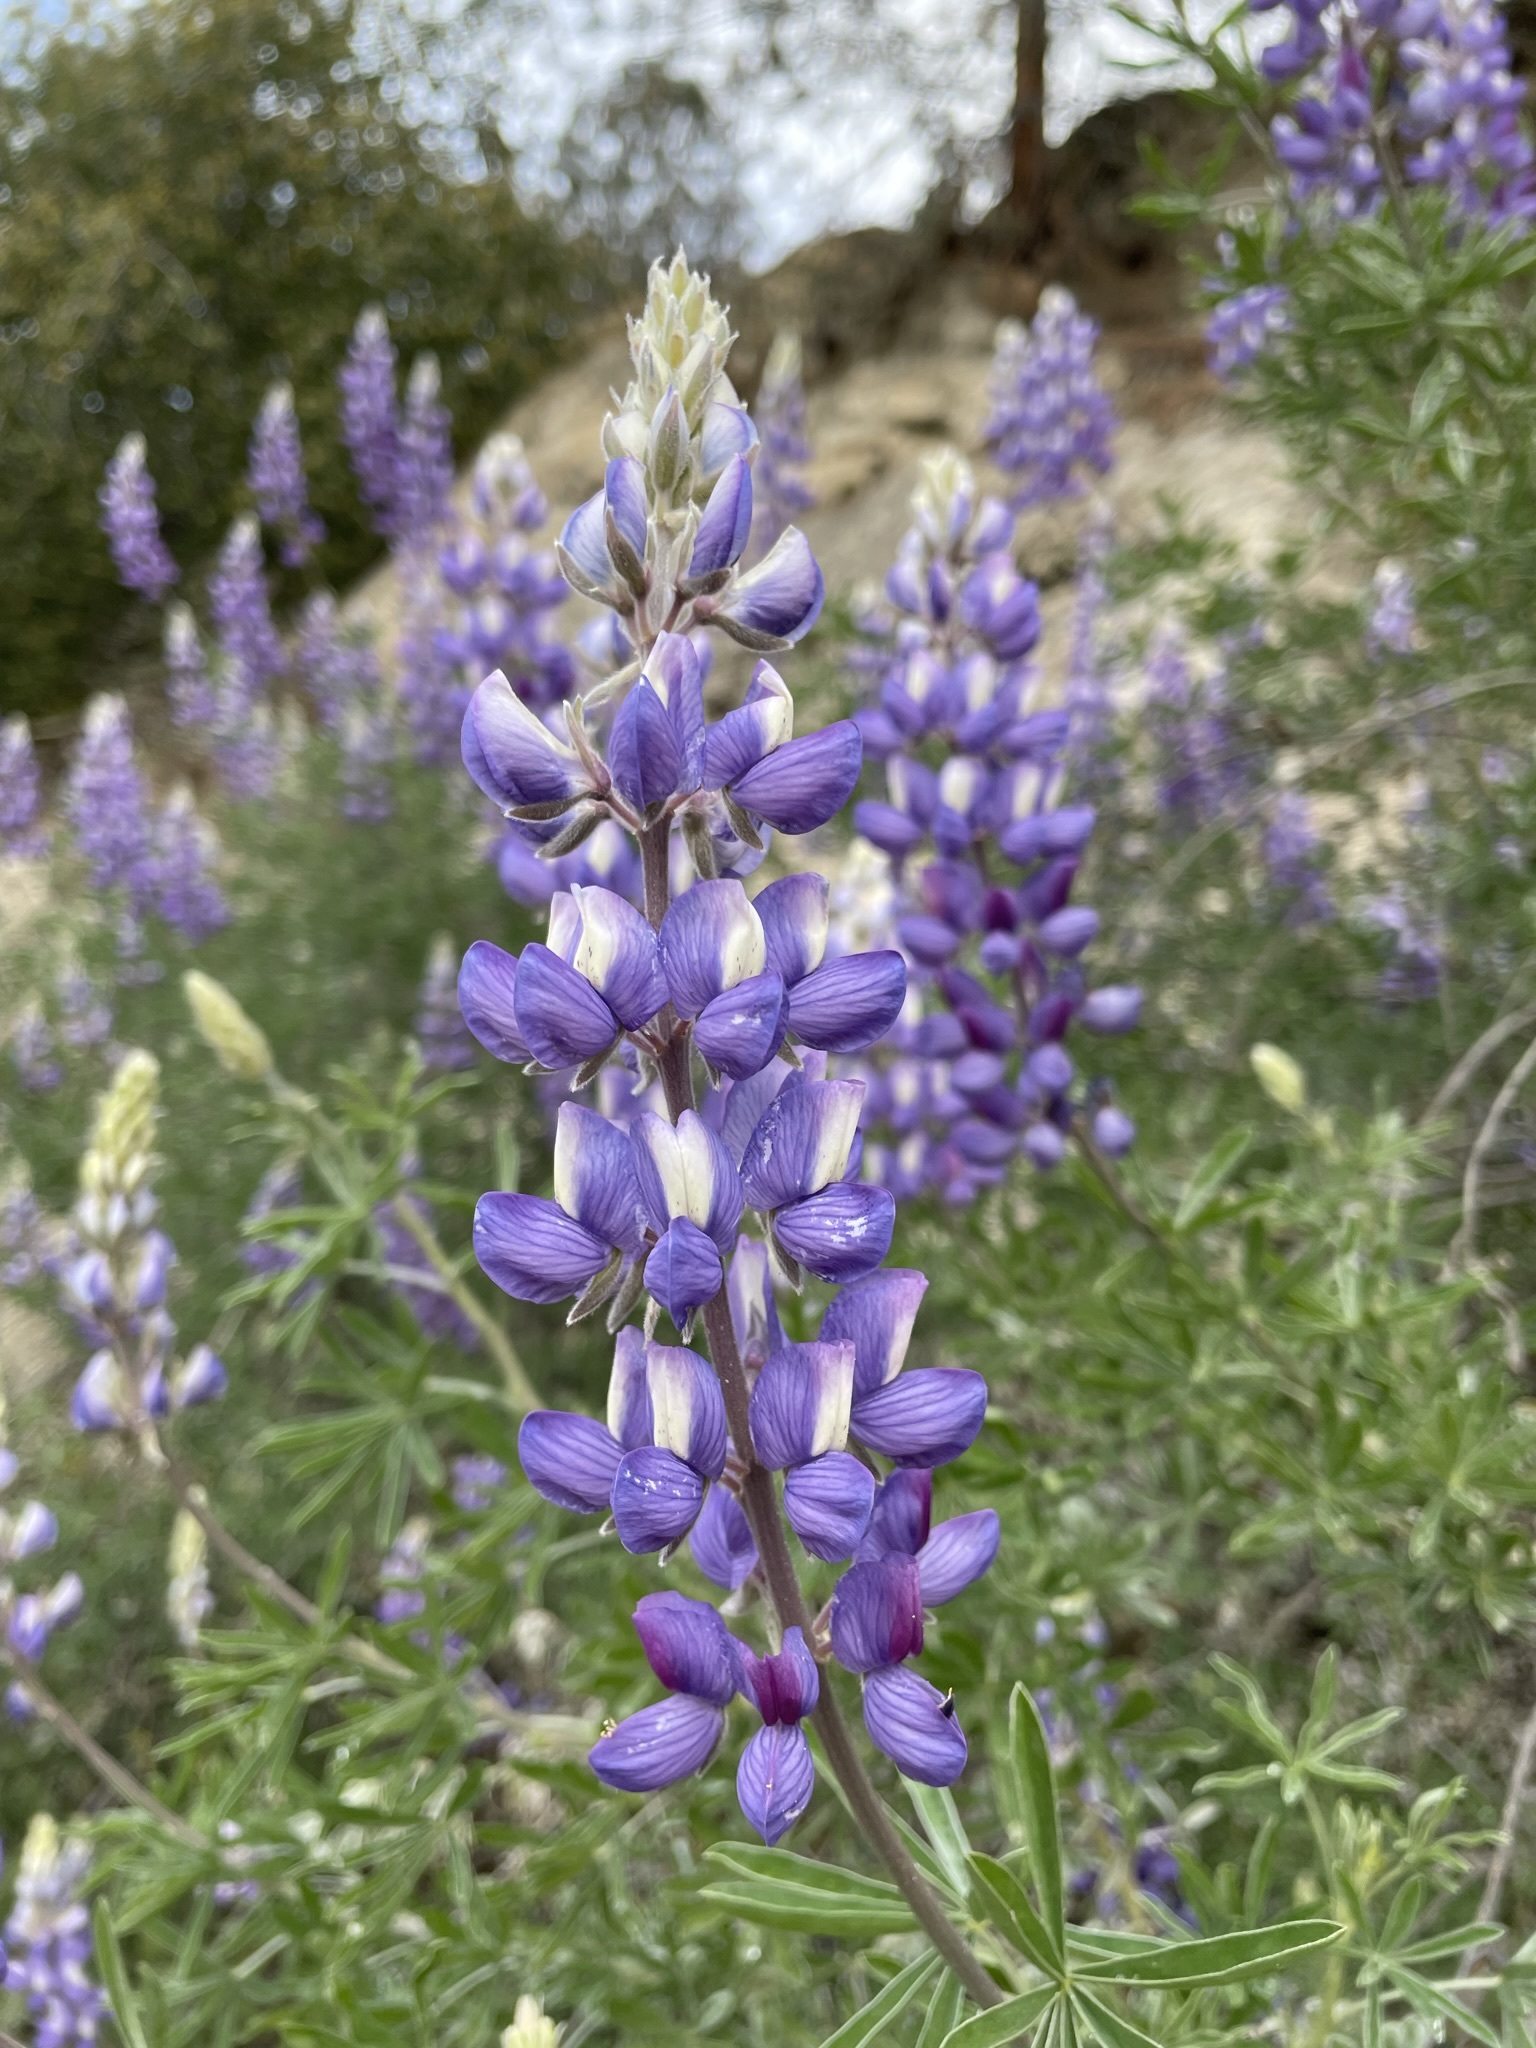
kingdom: Plantae
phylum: Tracheophyta
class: Magnoliopsida
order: Fabales
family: Fabaceae
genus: Lupinus
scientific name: Lupinus albifrons
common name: Foothill lupine
